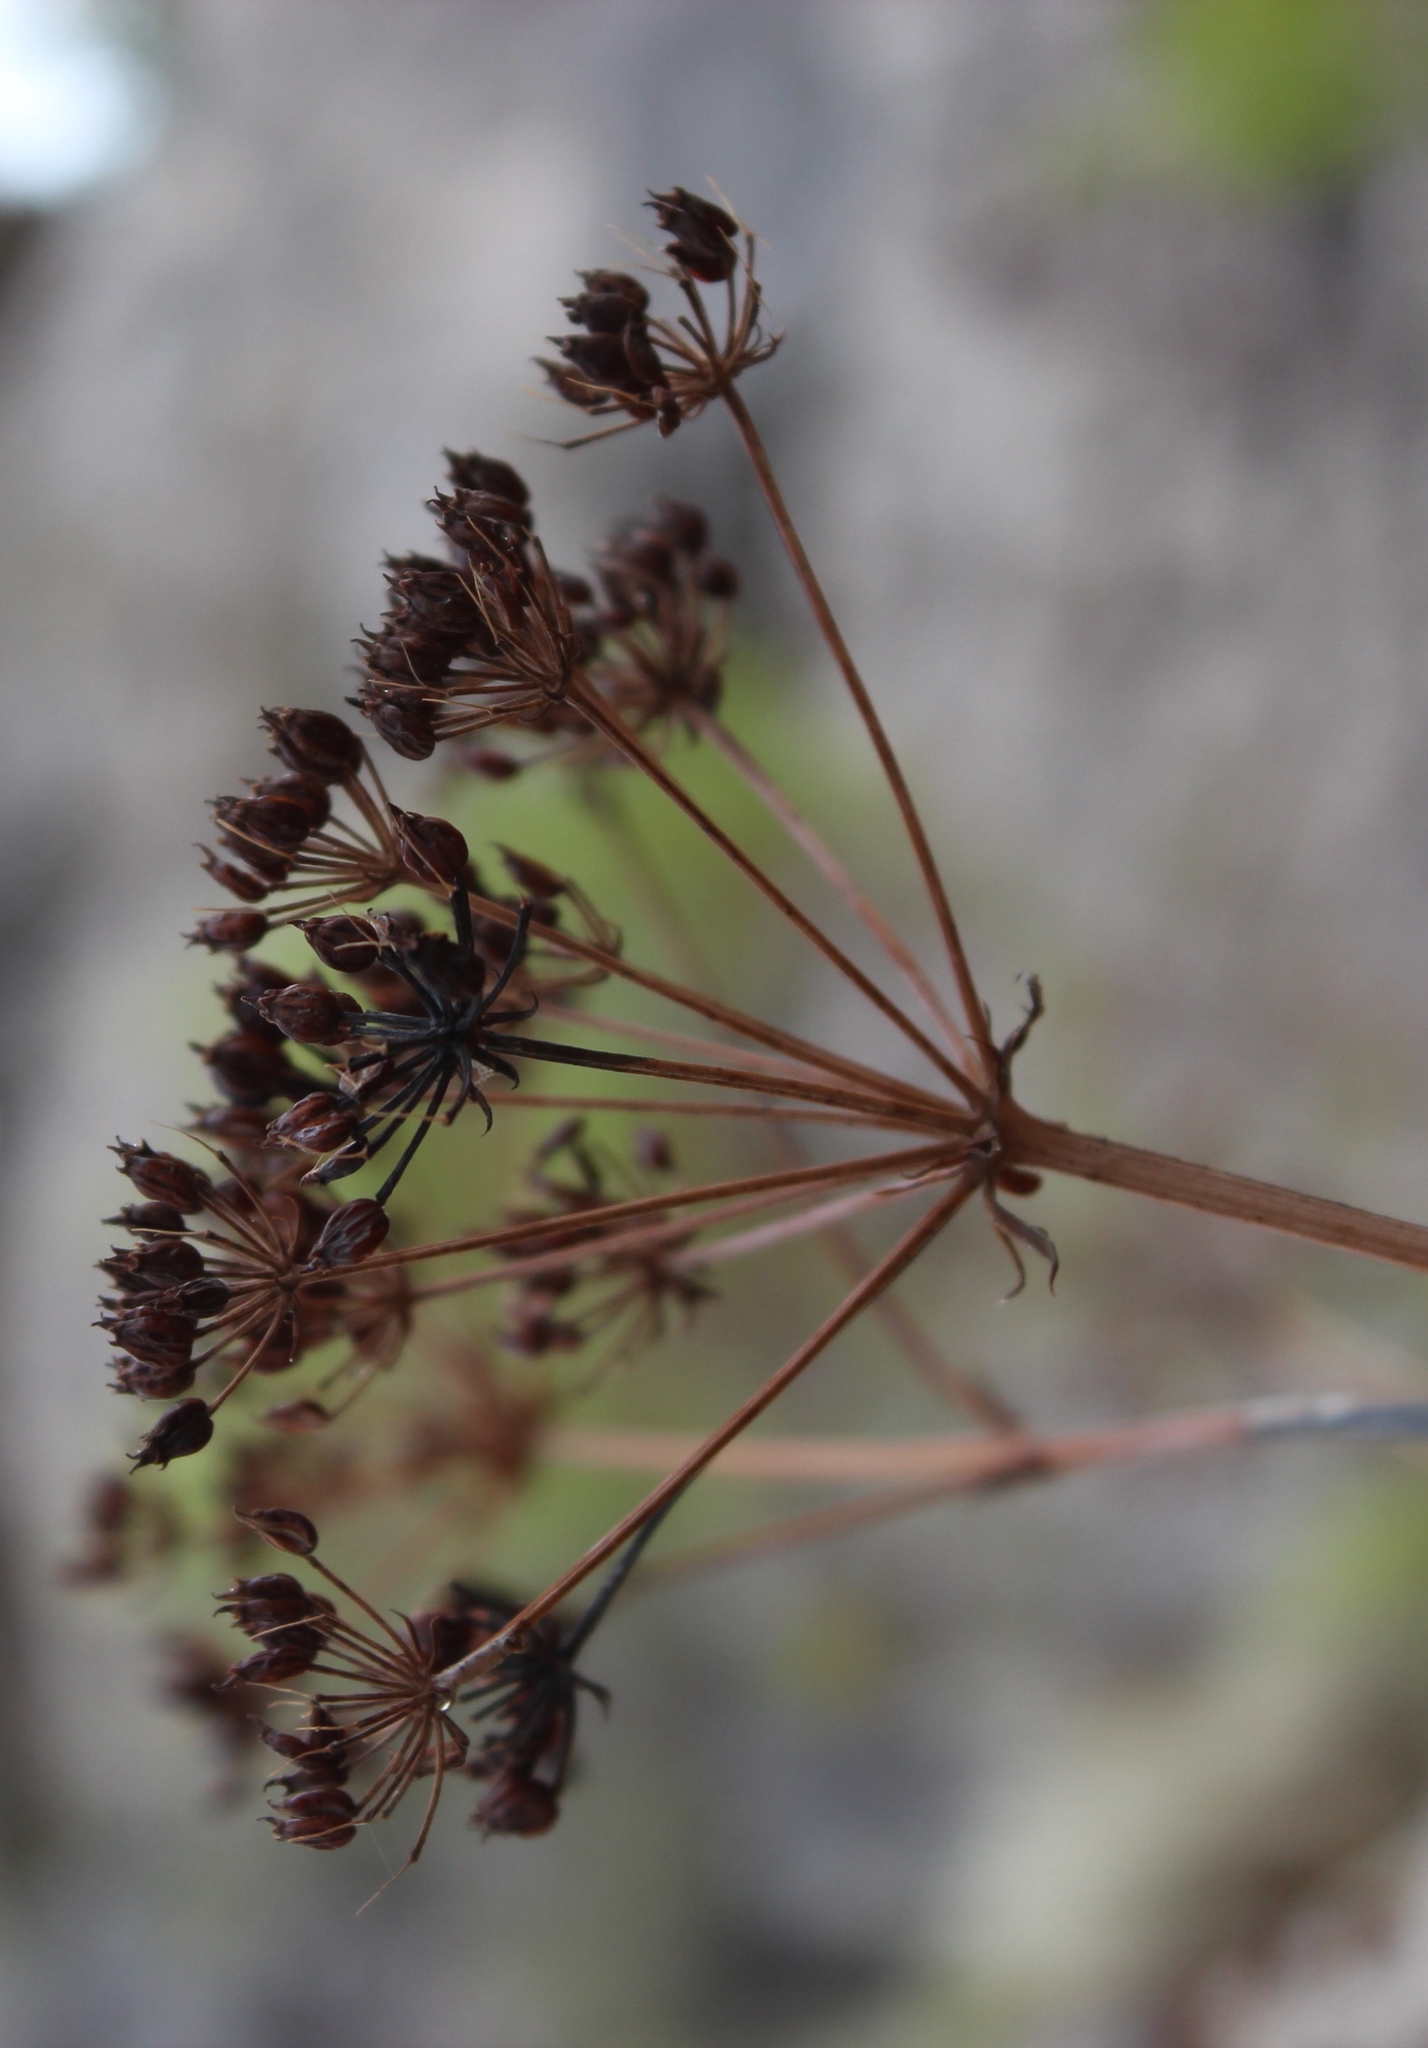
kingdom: Plantae
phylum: Tracheophyta
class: Magnoliopsida
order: Apiales
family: Apiaceae
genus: Lichtensteinia
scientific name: Lichtensteinia trifida
